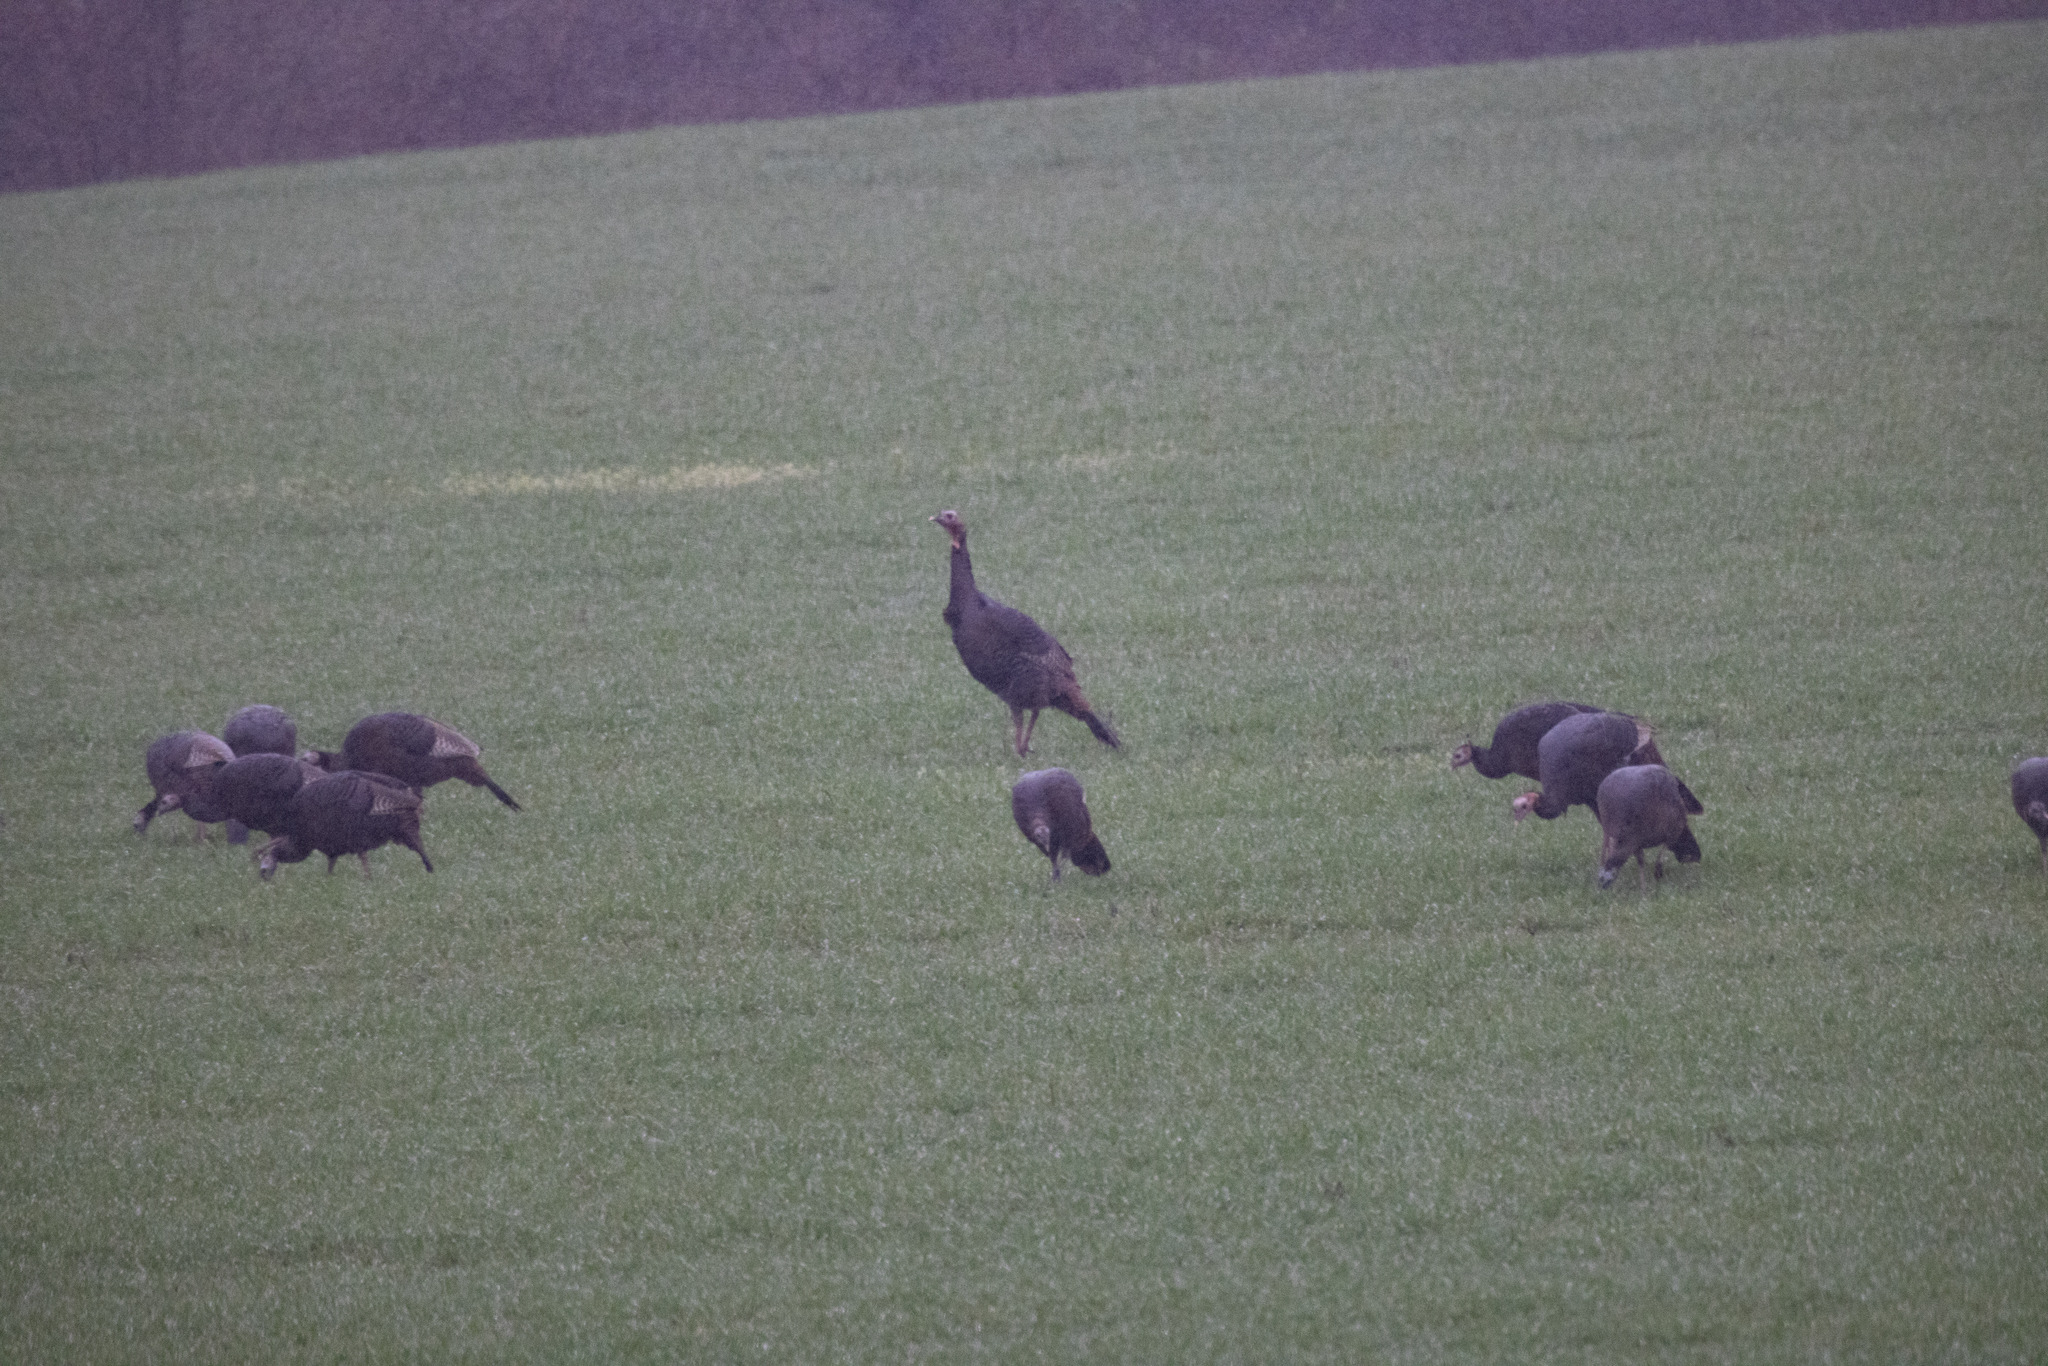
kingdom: Animalia
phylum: Chordata
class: Aves
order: Galliformes
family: Phasianidae
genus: Meleagris
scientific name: Meleagris gallopavo
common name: Wild turkey
